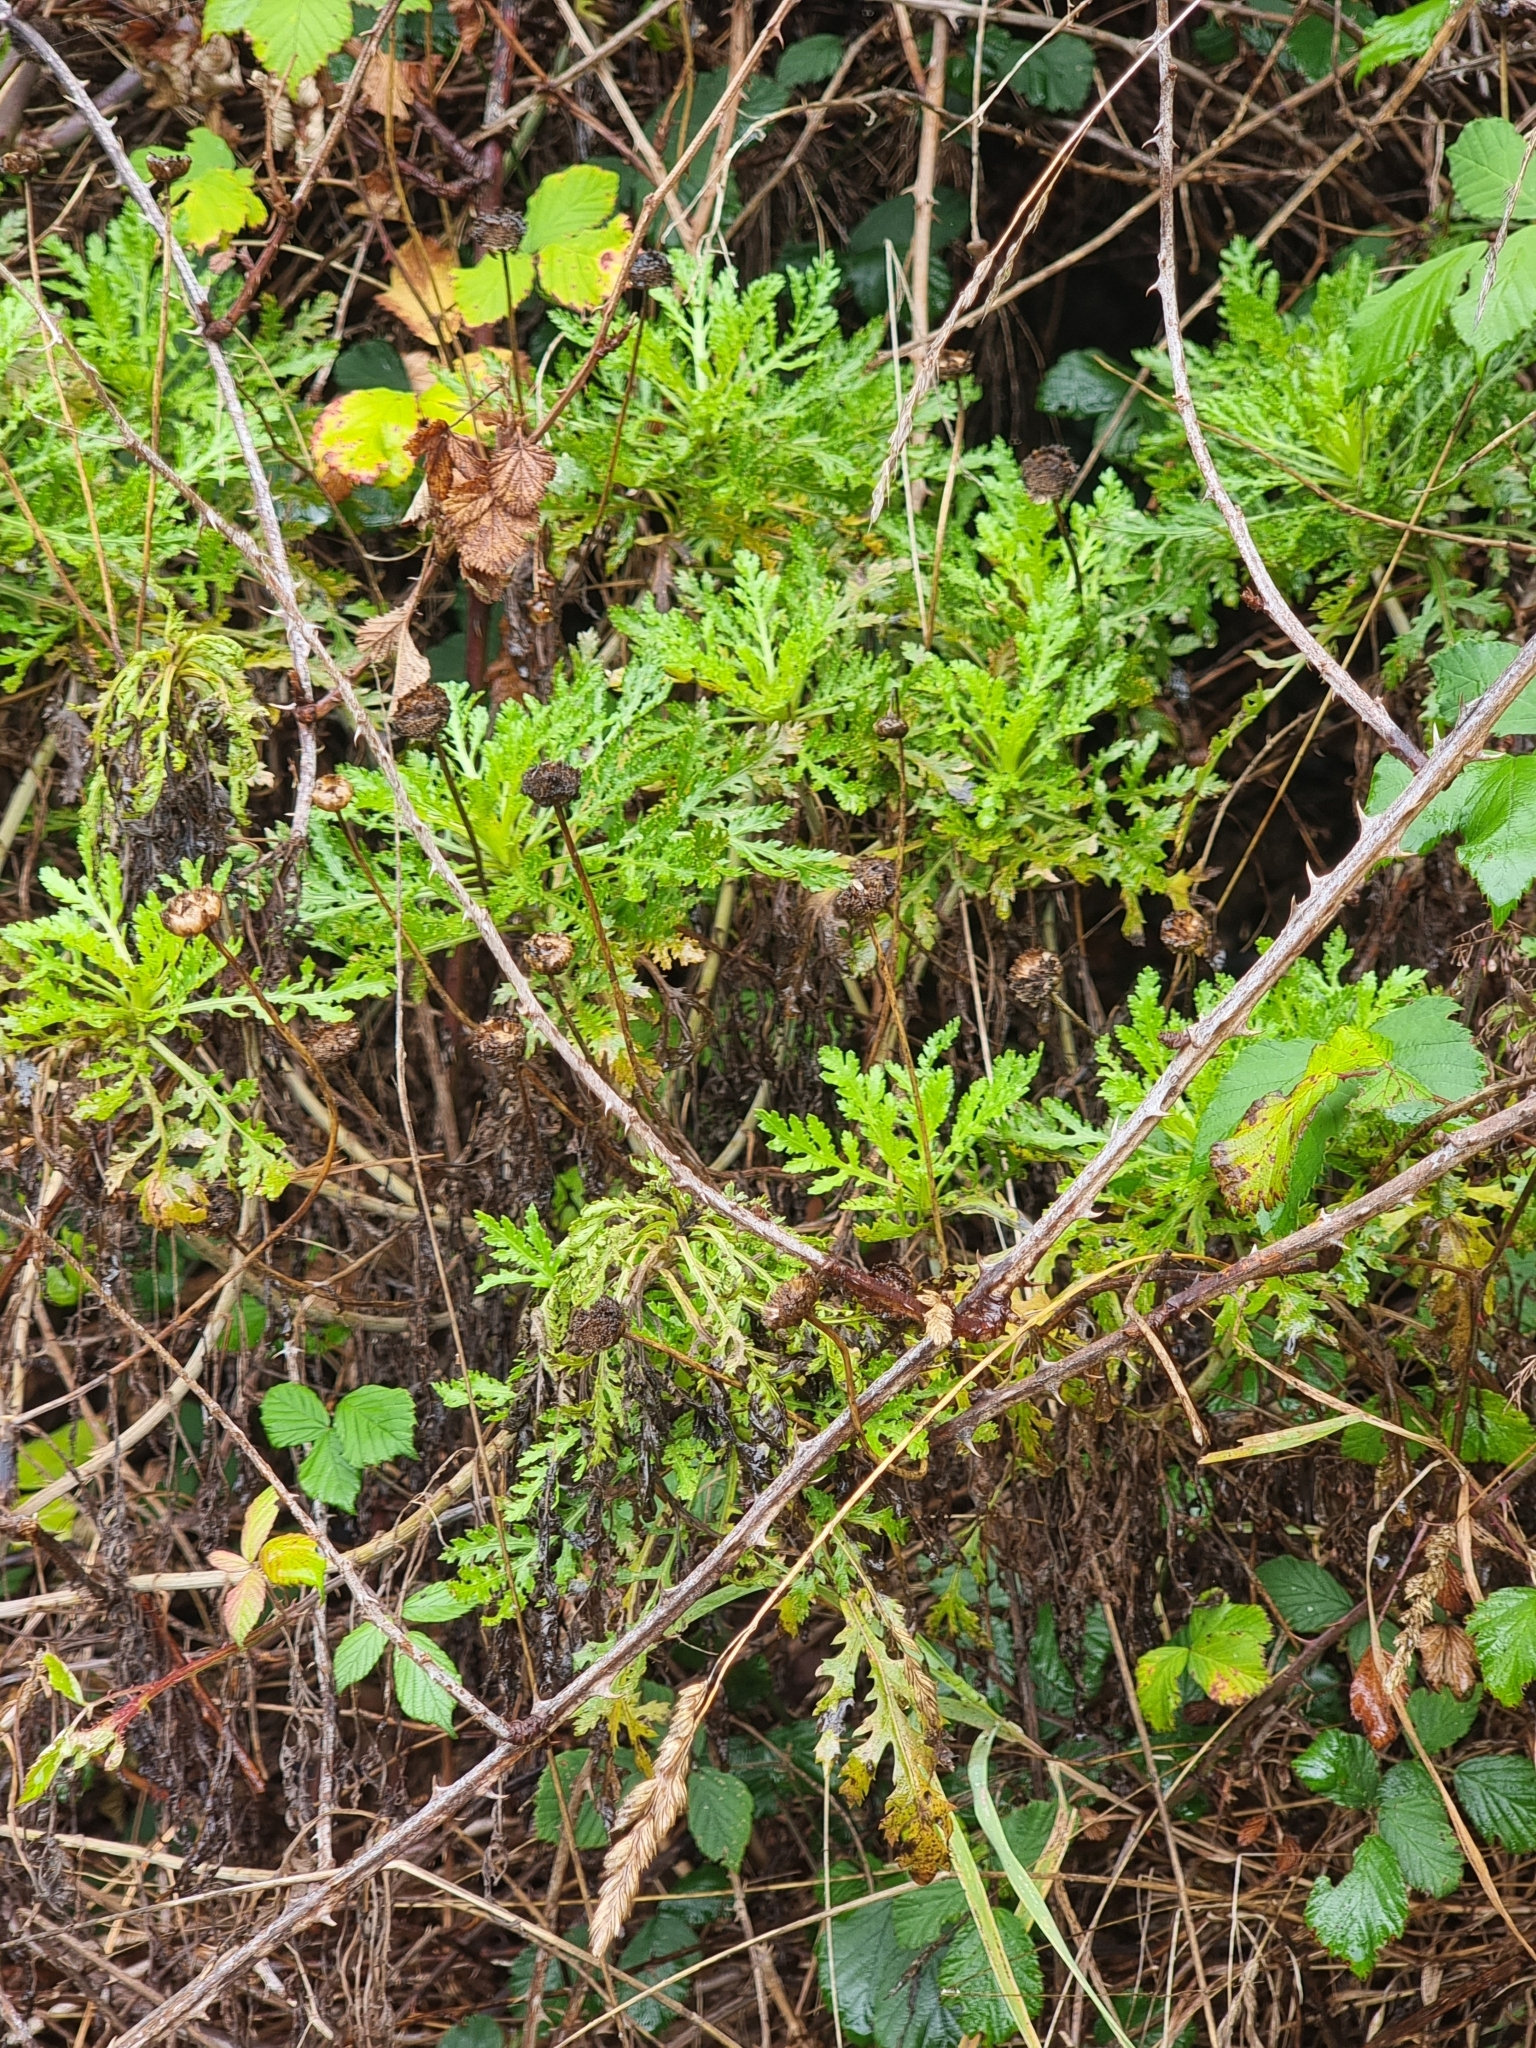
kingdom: Plantae
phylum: Tracheophyta
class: Magnoliopsida
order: Asterales
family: Asteraceae
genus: Argyranthemum
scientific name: Argyranthemum dissectum
